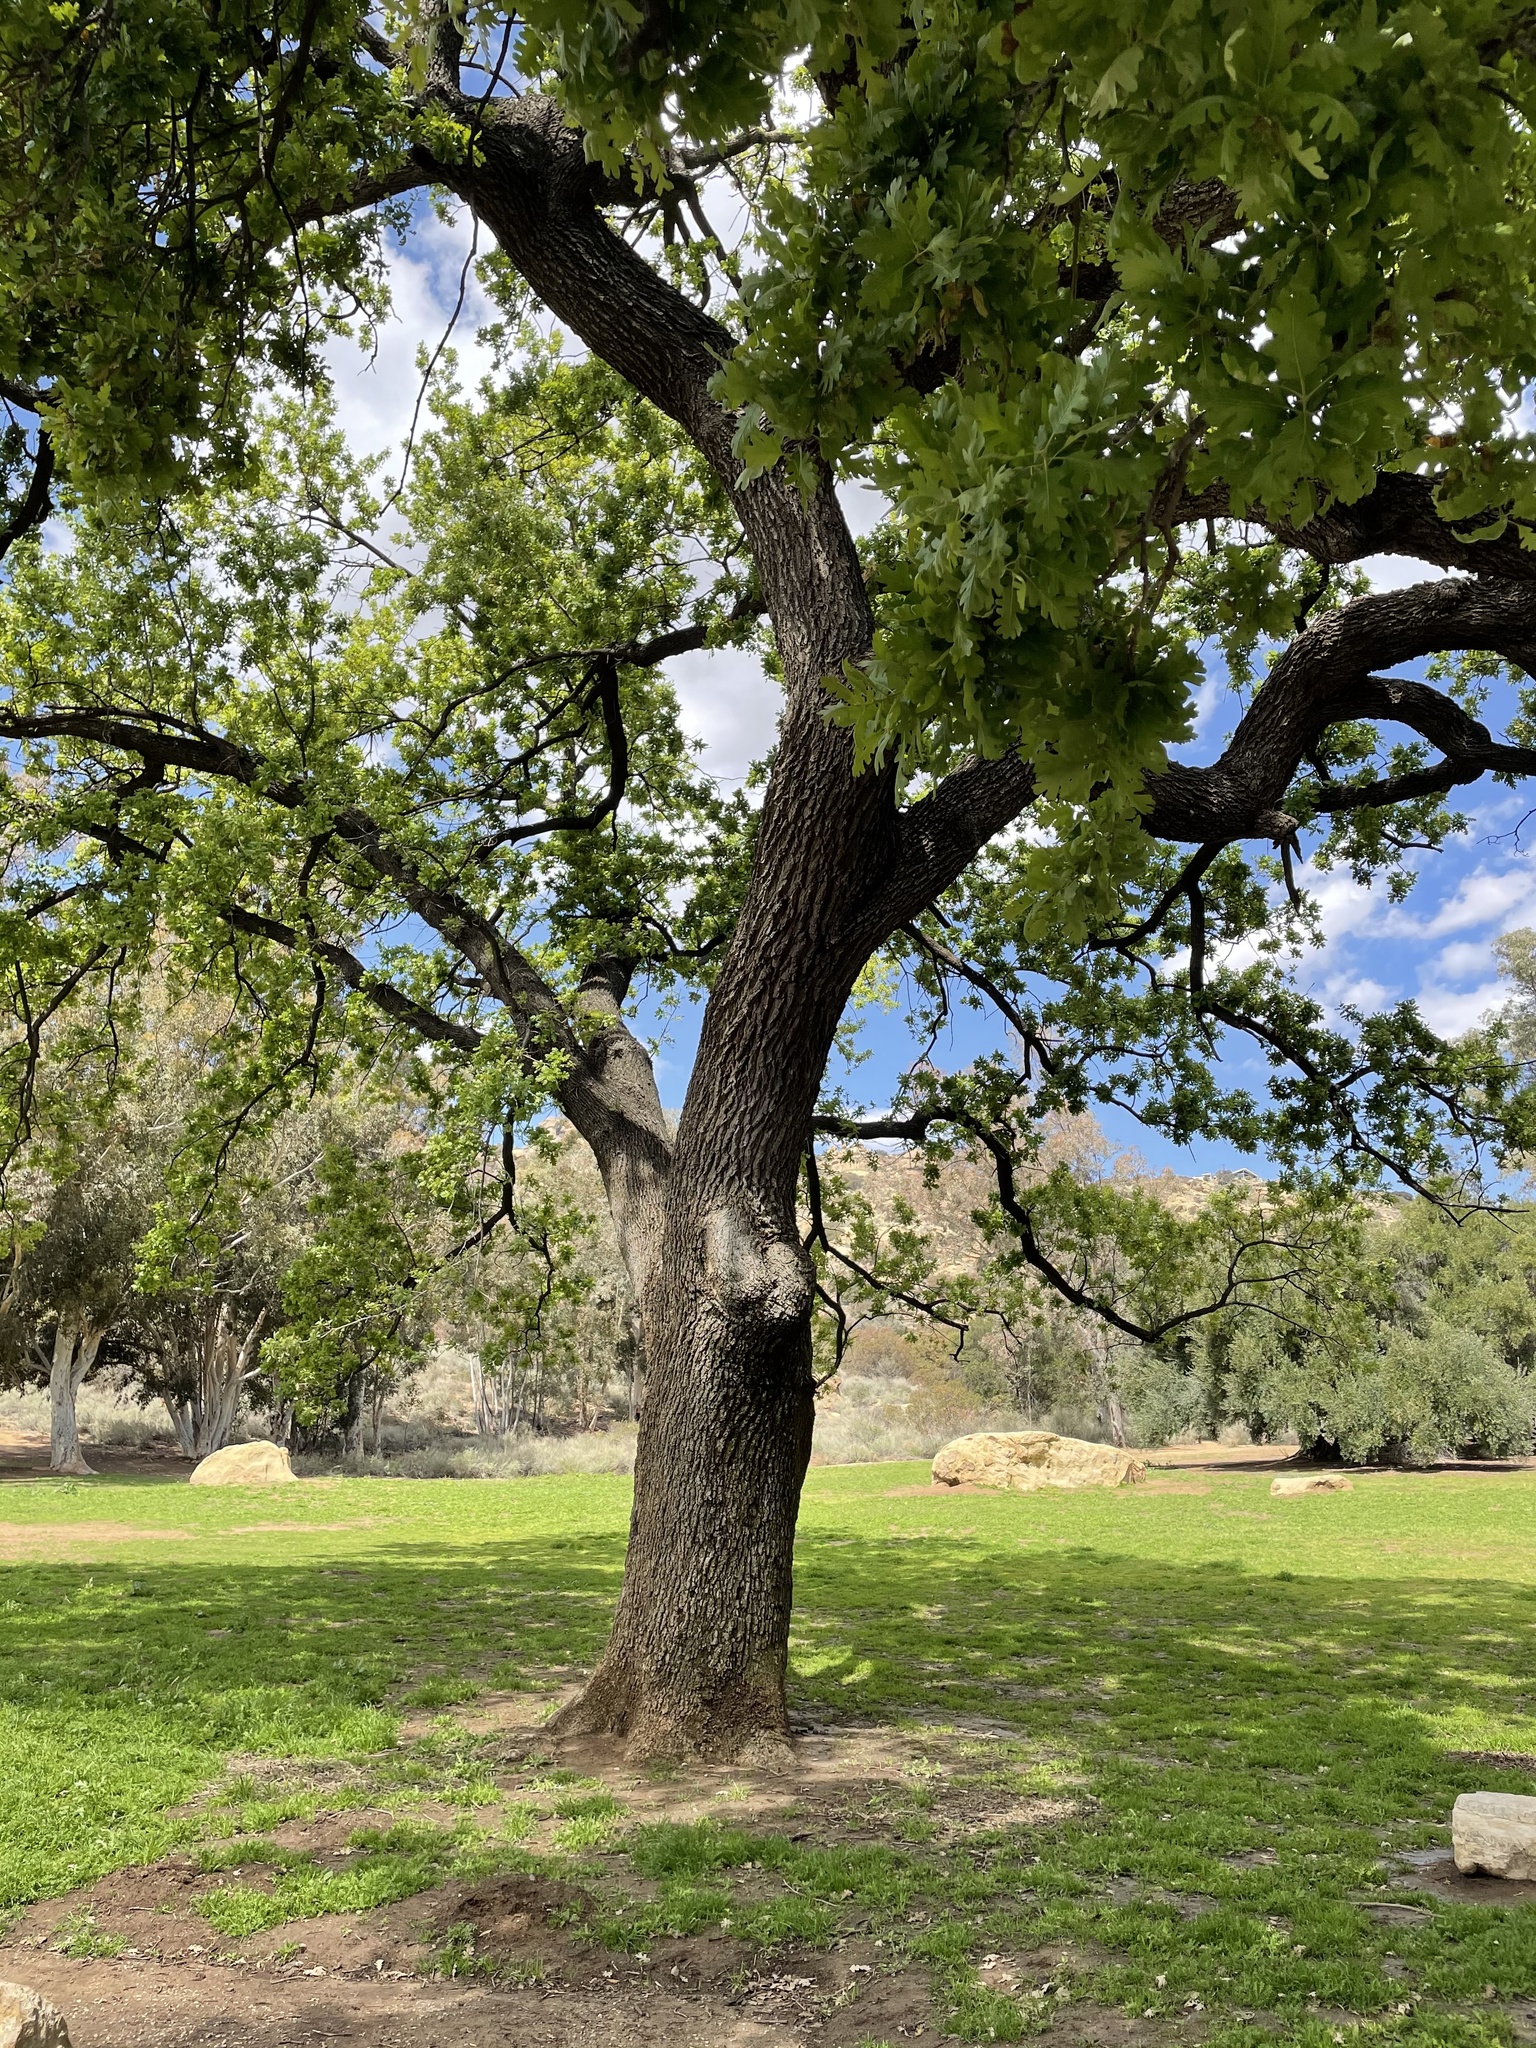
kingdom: Plantae
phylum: Tracheophyta
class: Magnoliopsida
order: Fagales
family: Fagaceae
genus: Quercus
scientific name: Quercus lobata
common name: Valley oak
